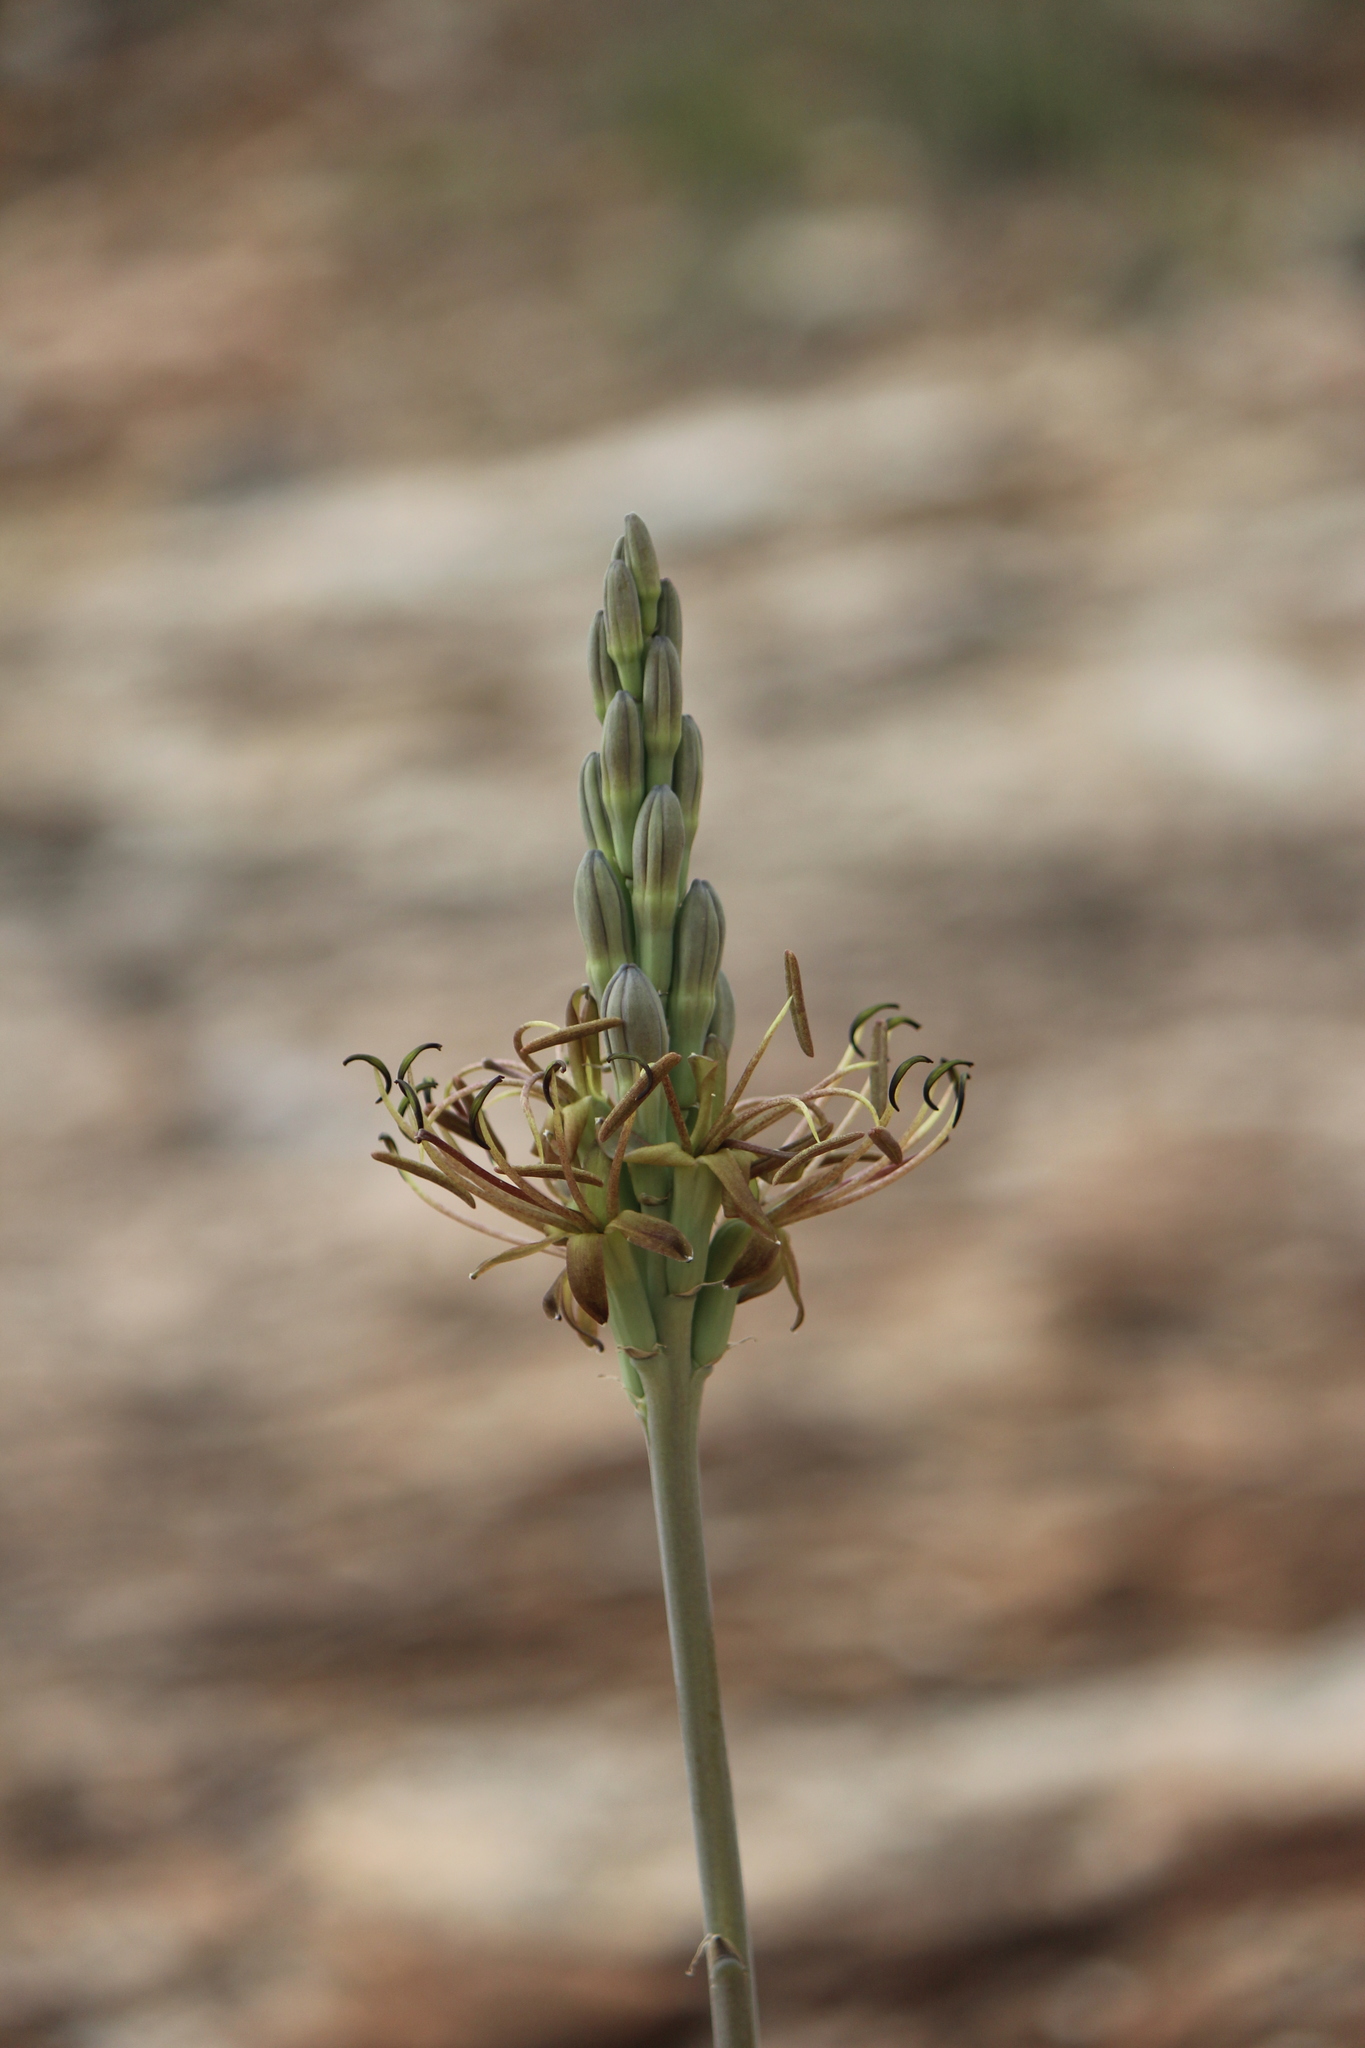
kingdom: Plantae
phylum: Tracheophyta
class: Liliopsida
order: Asparagales
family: Asparagaceae
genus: Agave
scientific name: Agave guttata
